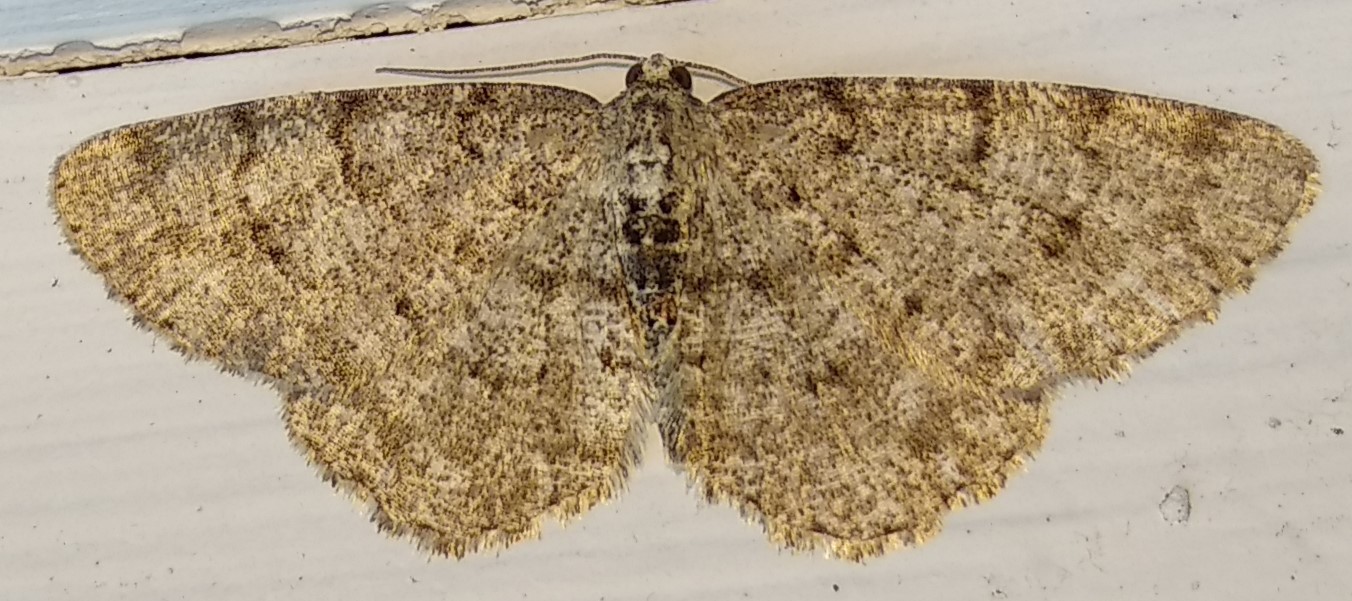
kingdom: Animalia
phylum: Arthropoda
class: Insecta
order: Lepidoptera
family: Geometridae
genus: Aethalura
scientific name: Aethalura intertexta
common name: Four-barred gray
